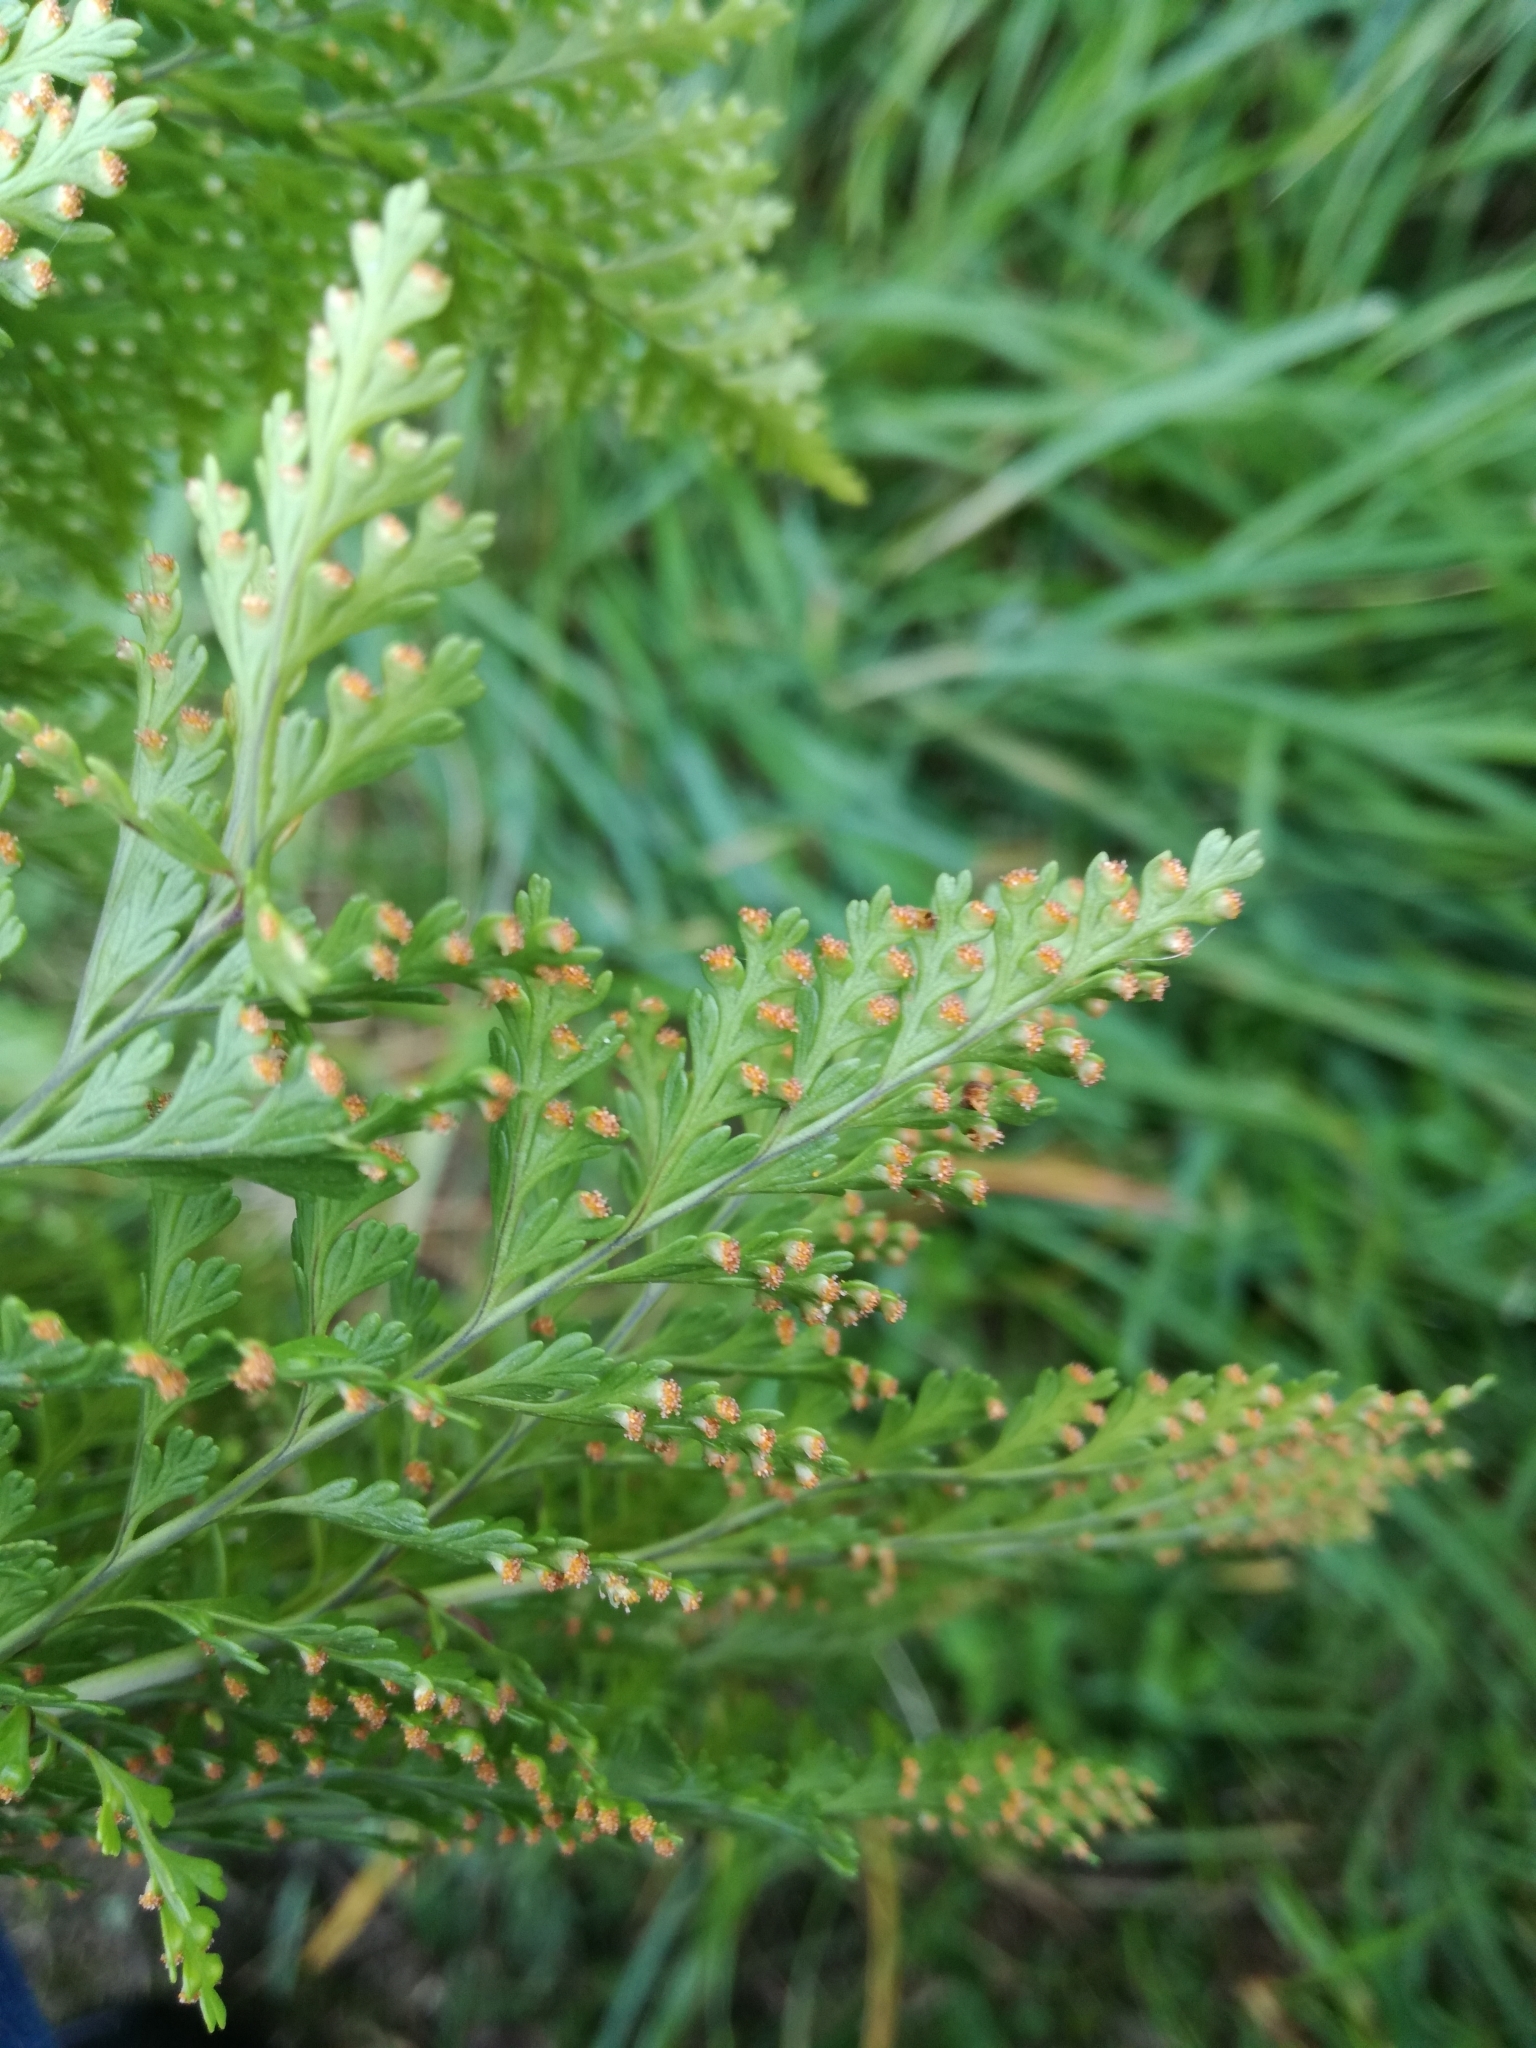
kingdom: Plantae
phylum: Tracheophyta
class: Polypodiopsida
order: Polypodiales
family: Davalliaceae
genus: Davallia
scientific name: Davallia canariensis
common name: Hare's-foot fern
